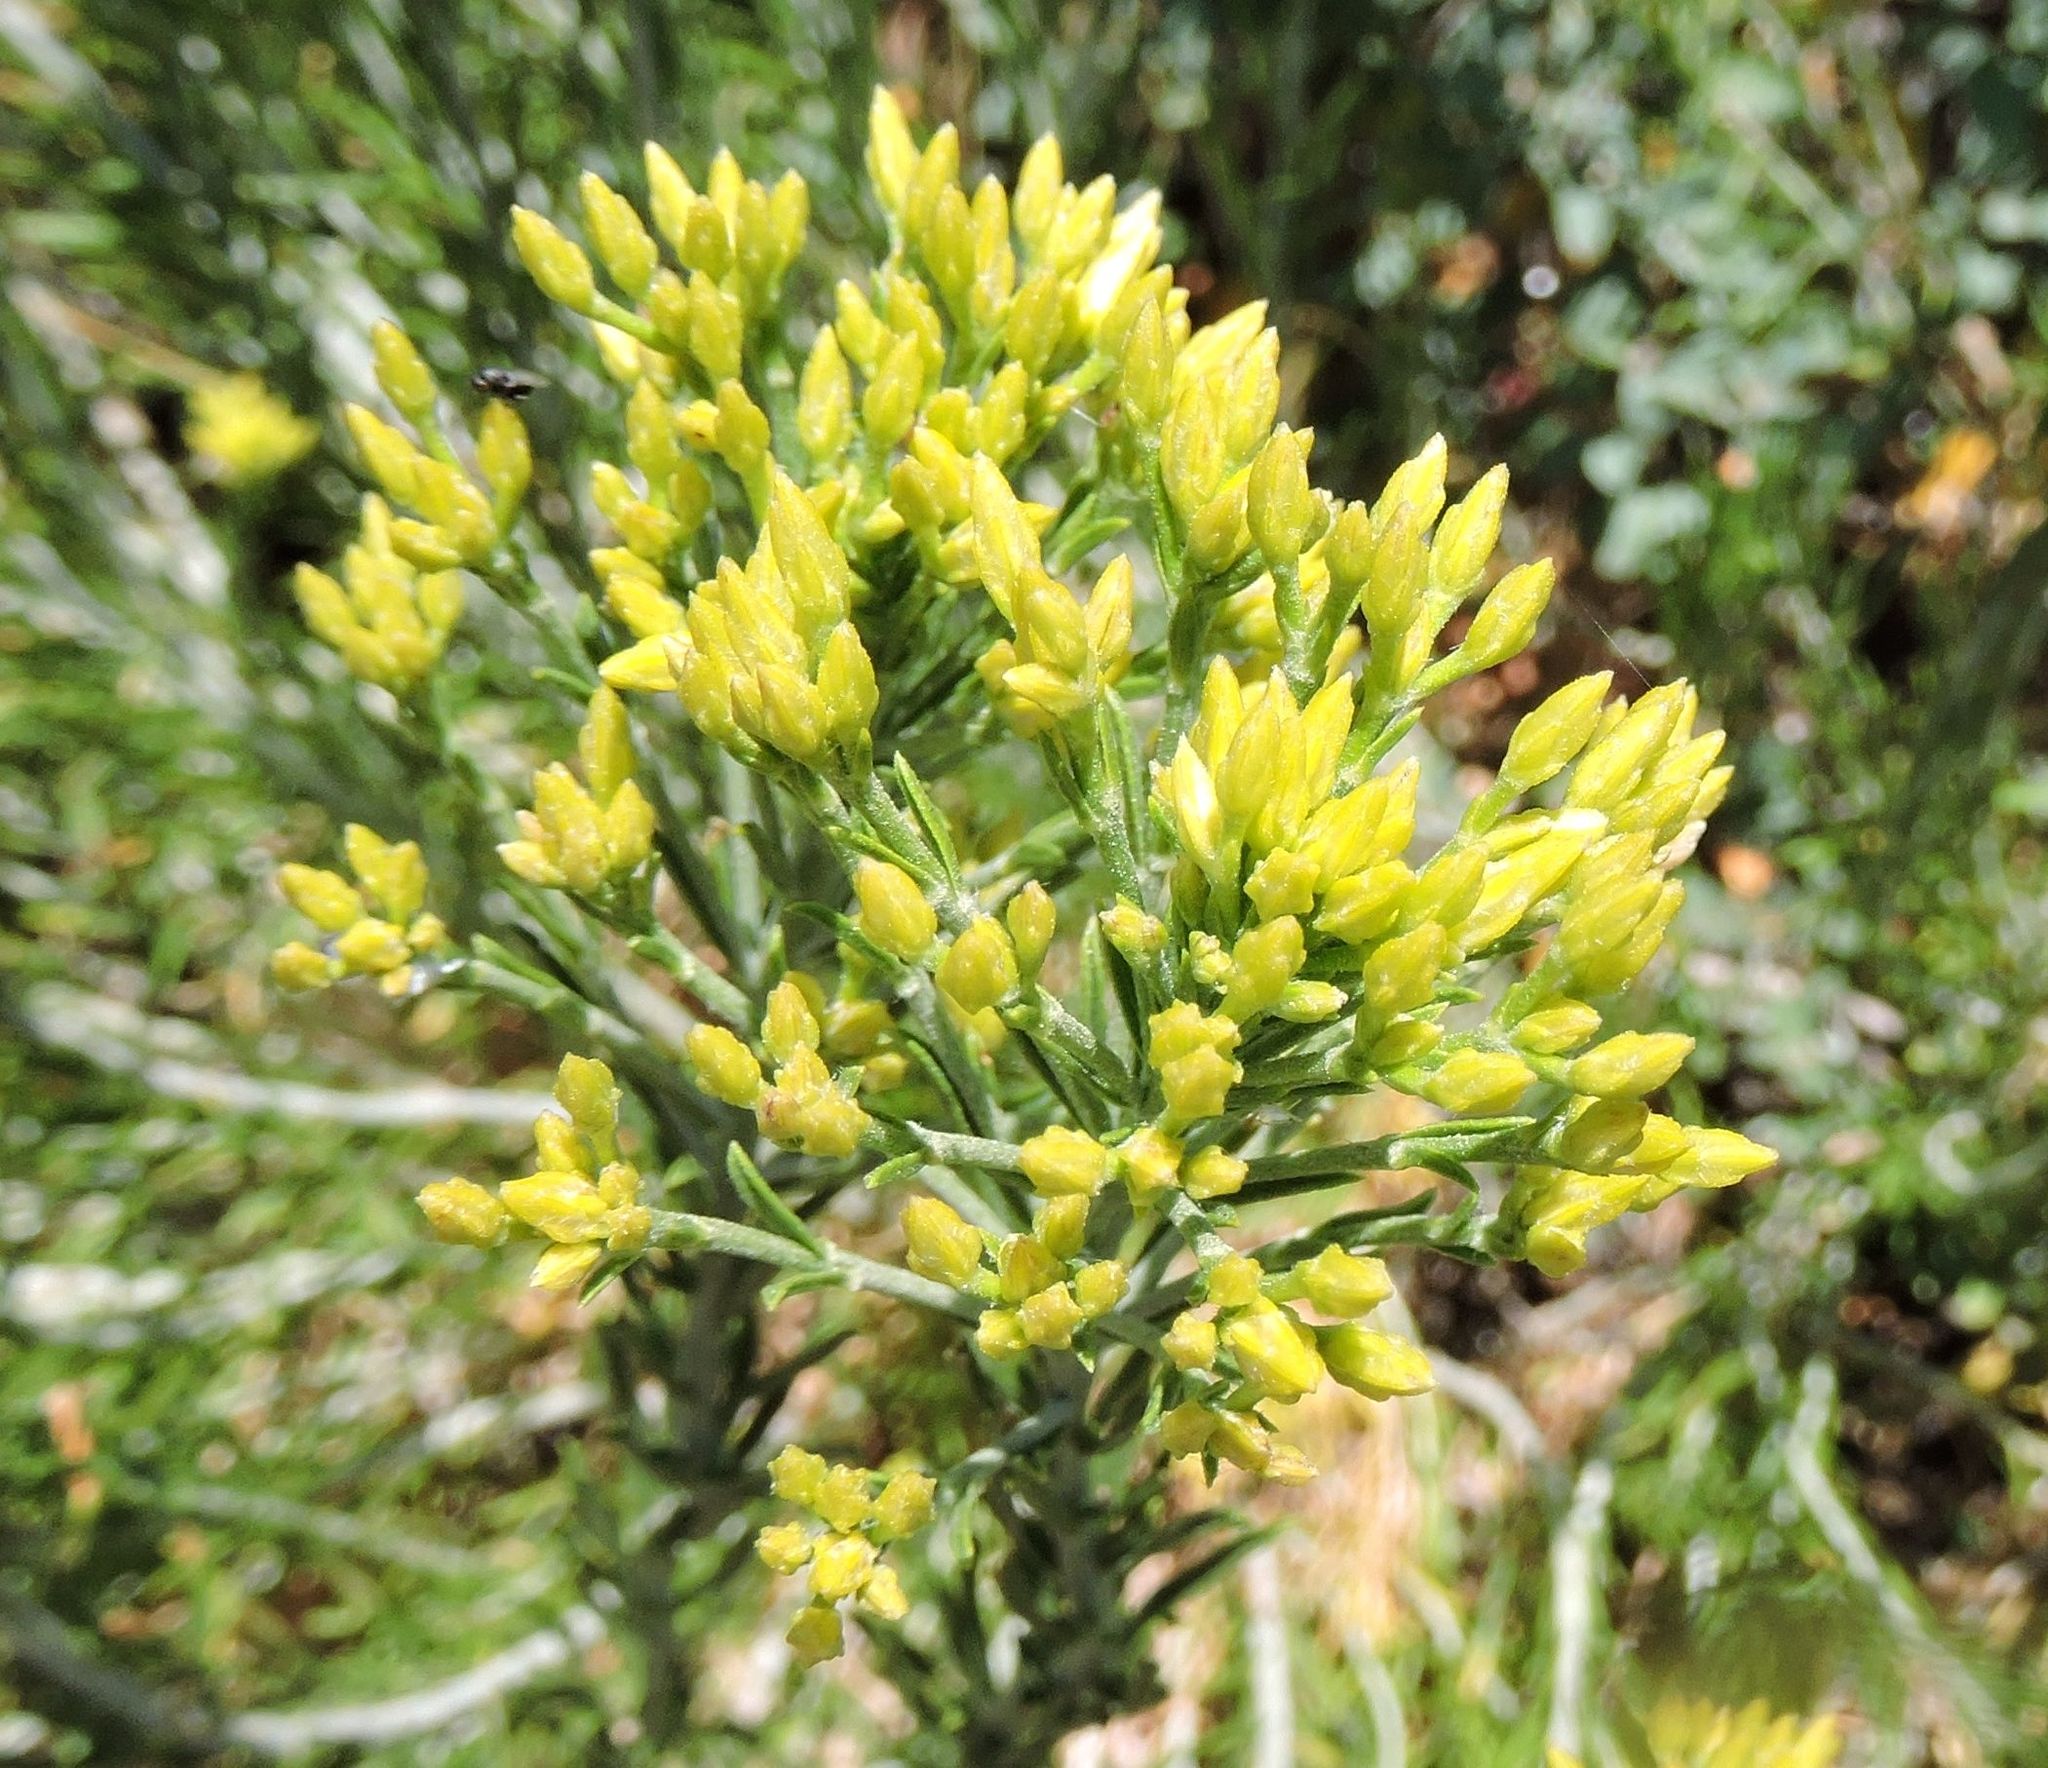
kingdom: Plantae
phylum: Tracheophyta
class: Magnoliopsida
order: Asterales
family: Asteraceae
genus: Ericameria
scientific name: Ericameria nauseosa
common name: Rubber rabbitbrush
